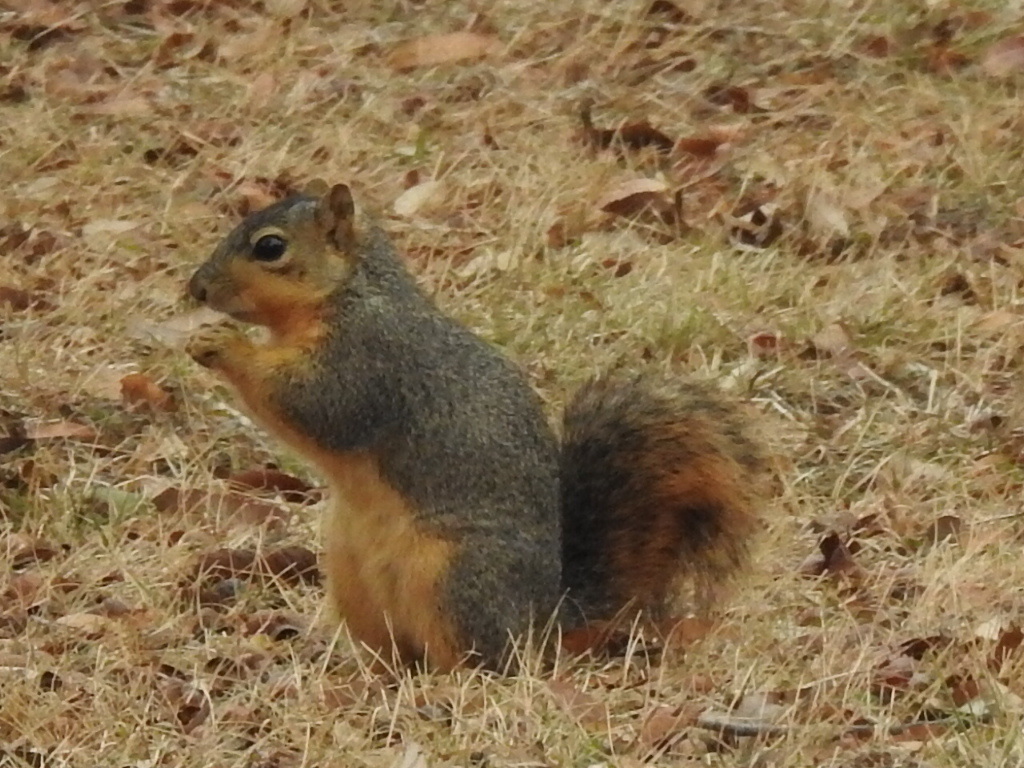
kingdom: Animalia
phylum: Chordata
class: Mammalia
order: Rodentia
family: Sciuridae
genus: Sciurus
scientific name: Sciurus niger
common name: Fox squirrel
